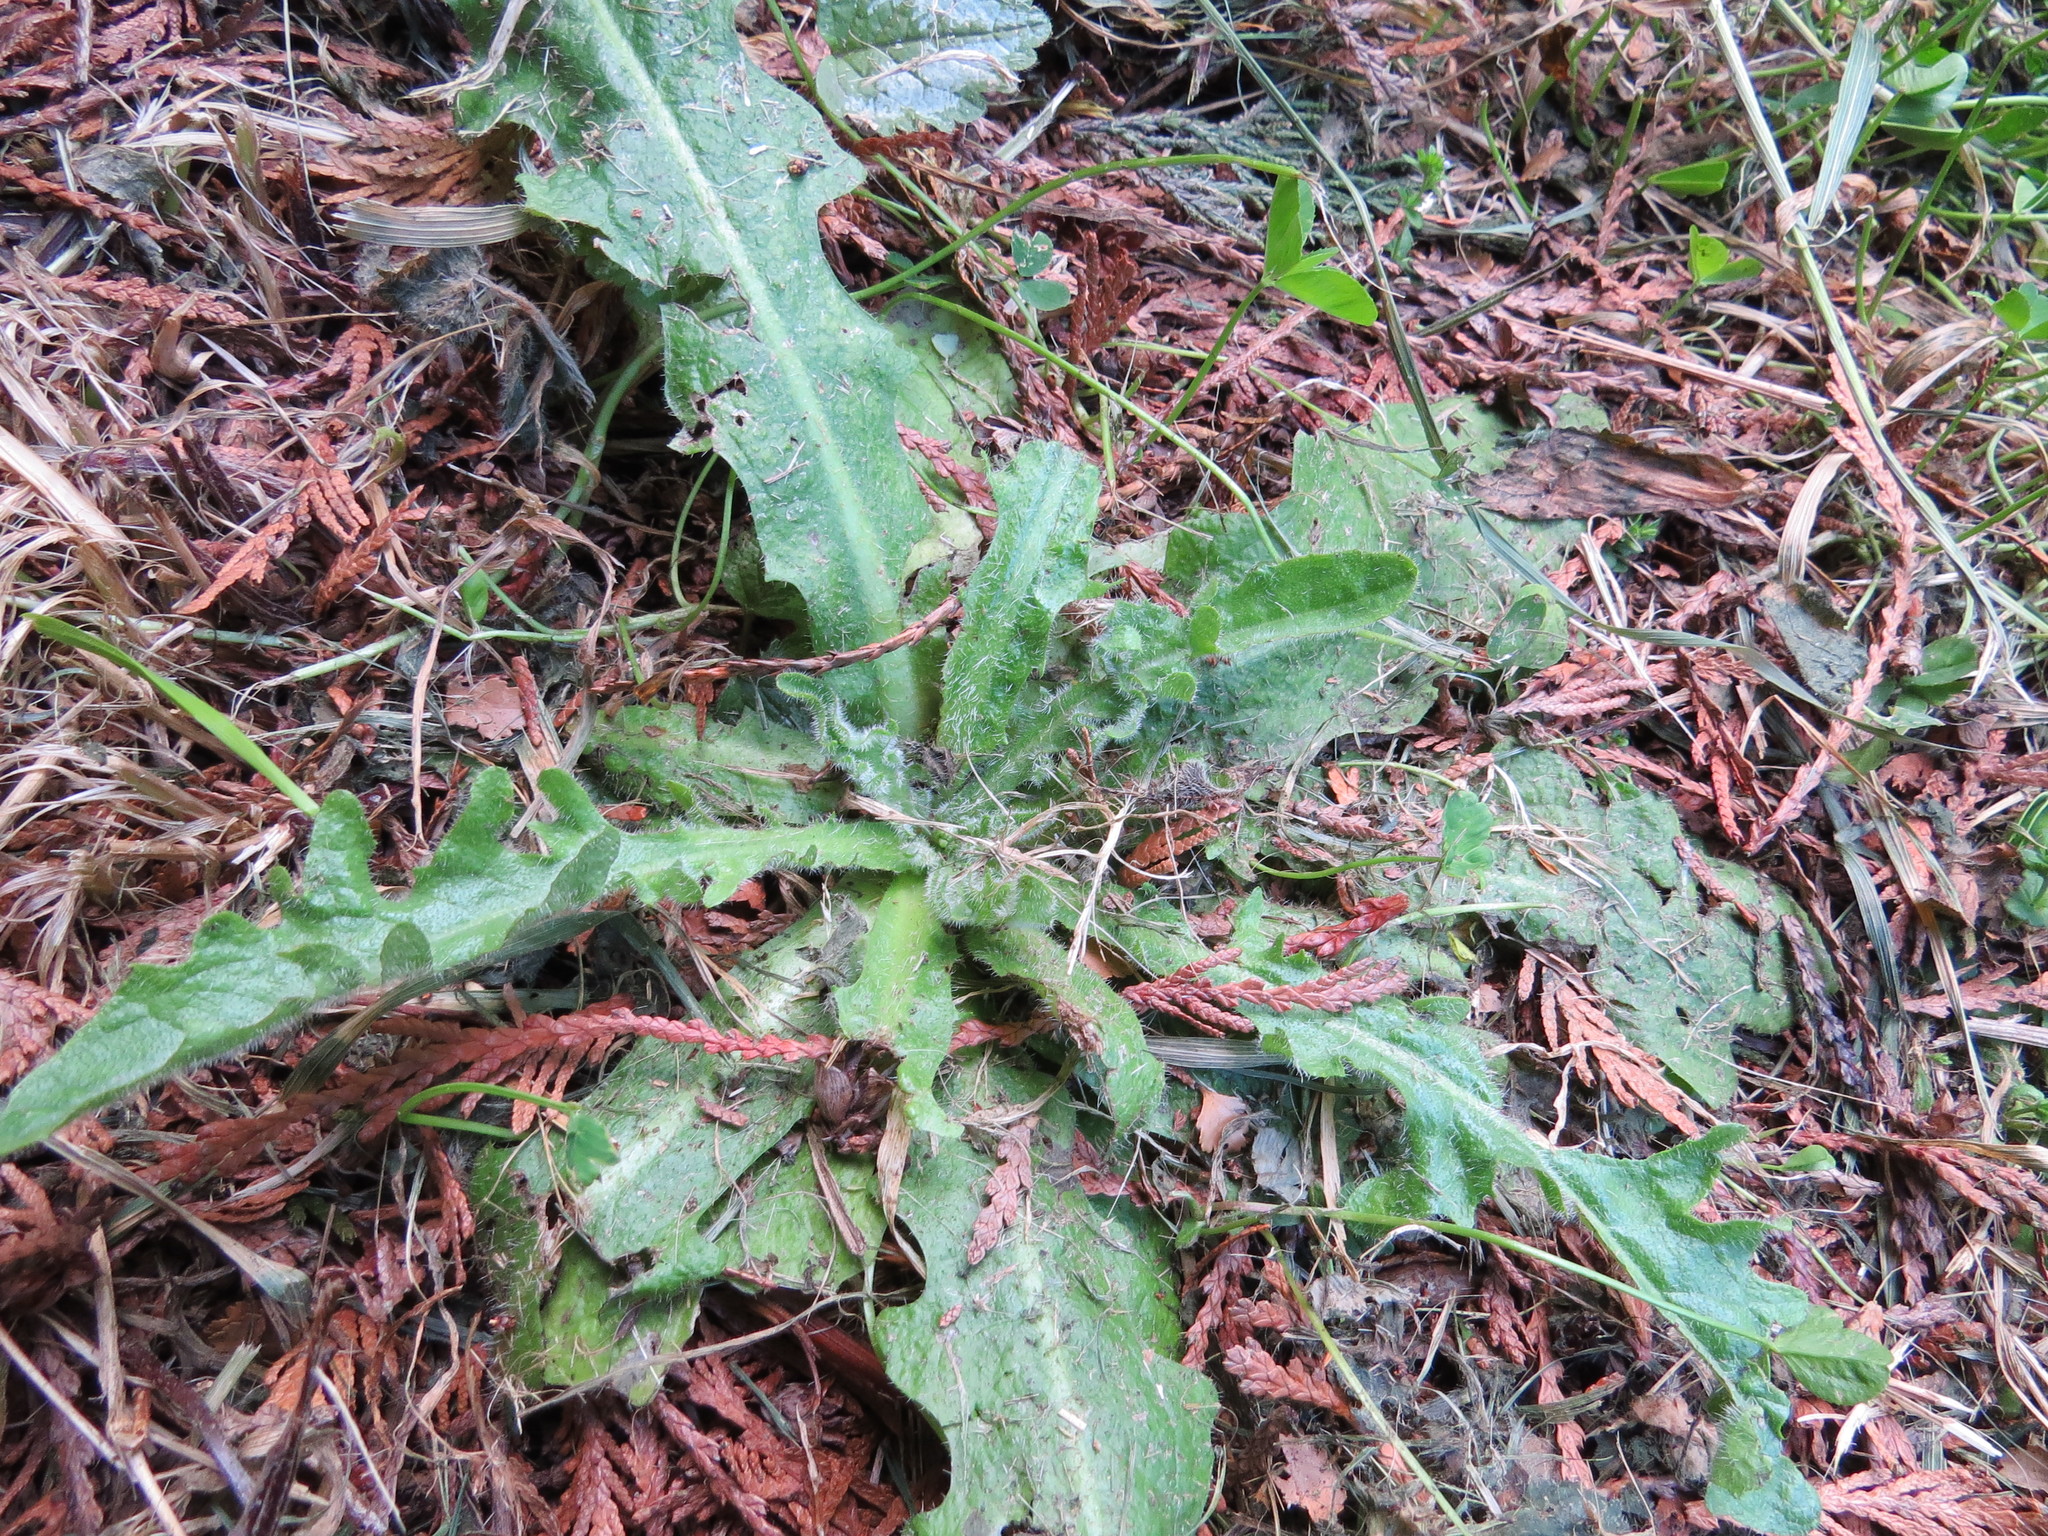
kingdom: Plantae
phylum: Tracheophyta
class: Magnoliopsida
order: Asterales
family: Asteraceae
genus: Hypochaeris
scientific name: Hypochaeris radicata
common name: Flatweed
